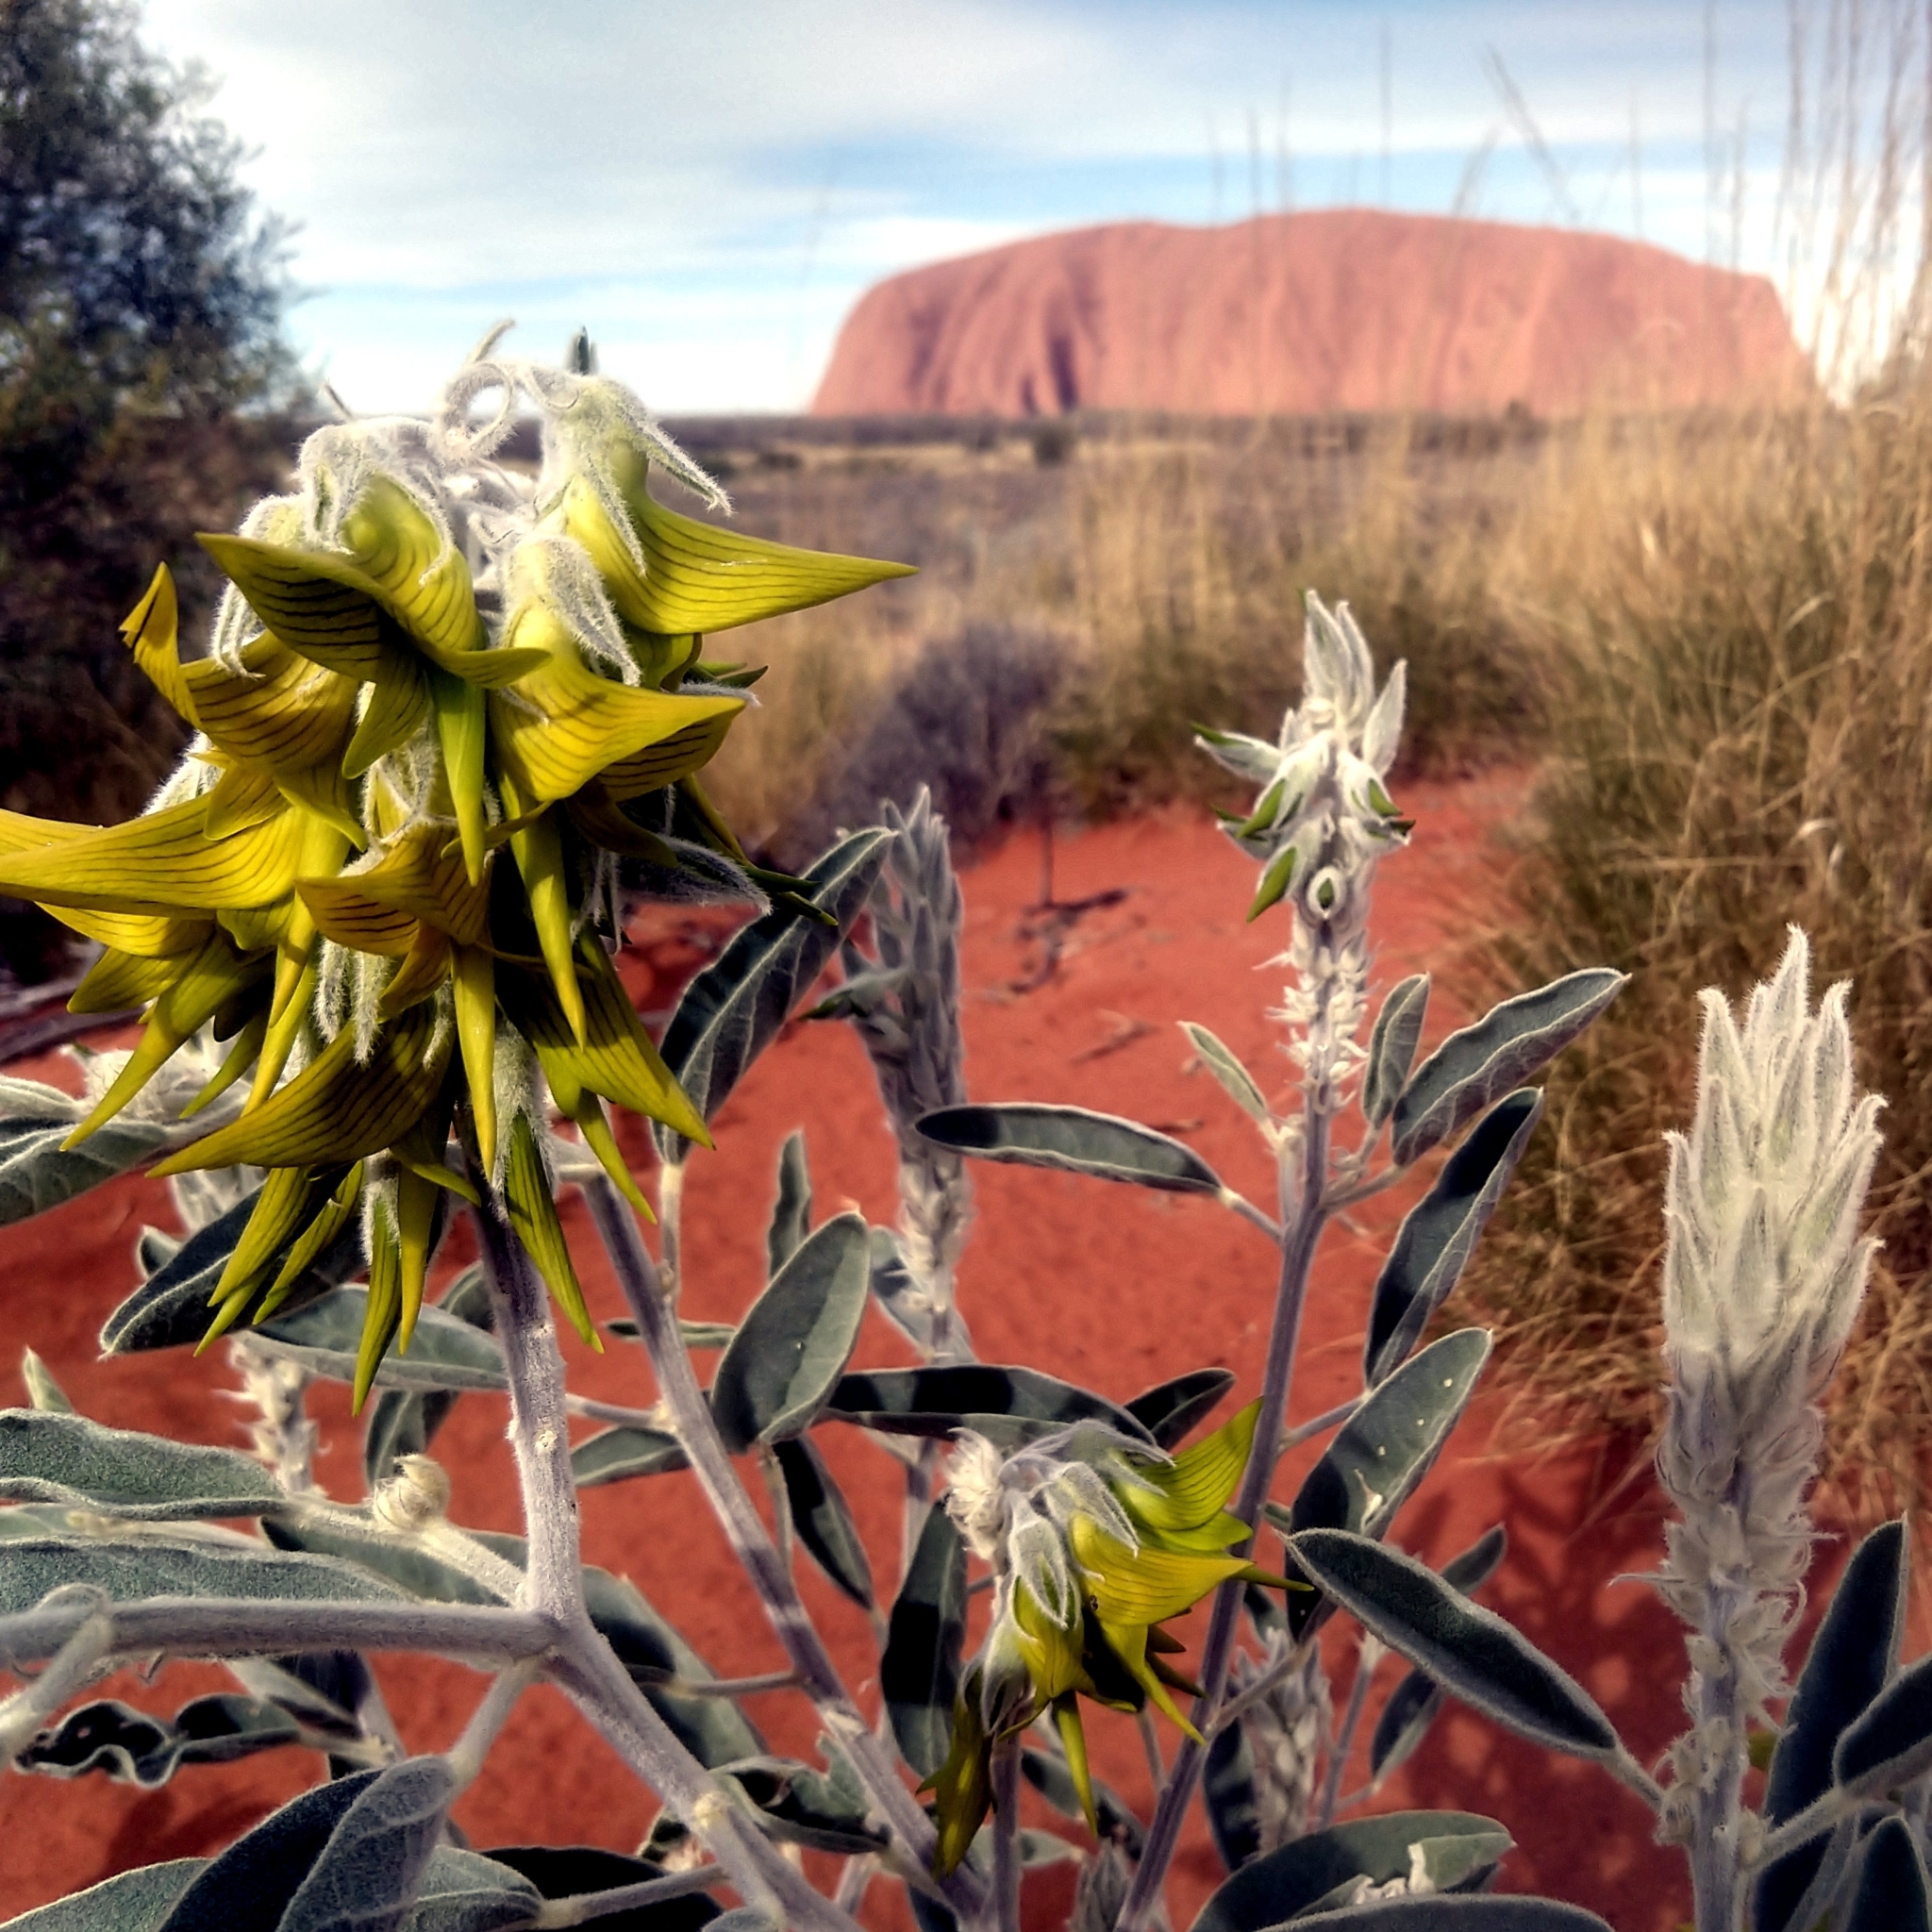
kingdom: Plantae
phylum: Tracheophyta
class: Magnoliopsida
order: Fabales
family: Fabaceae
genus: Crotalaria
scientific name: Crotalaria cunninghamii
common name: Birdflower rattlepod
